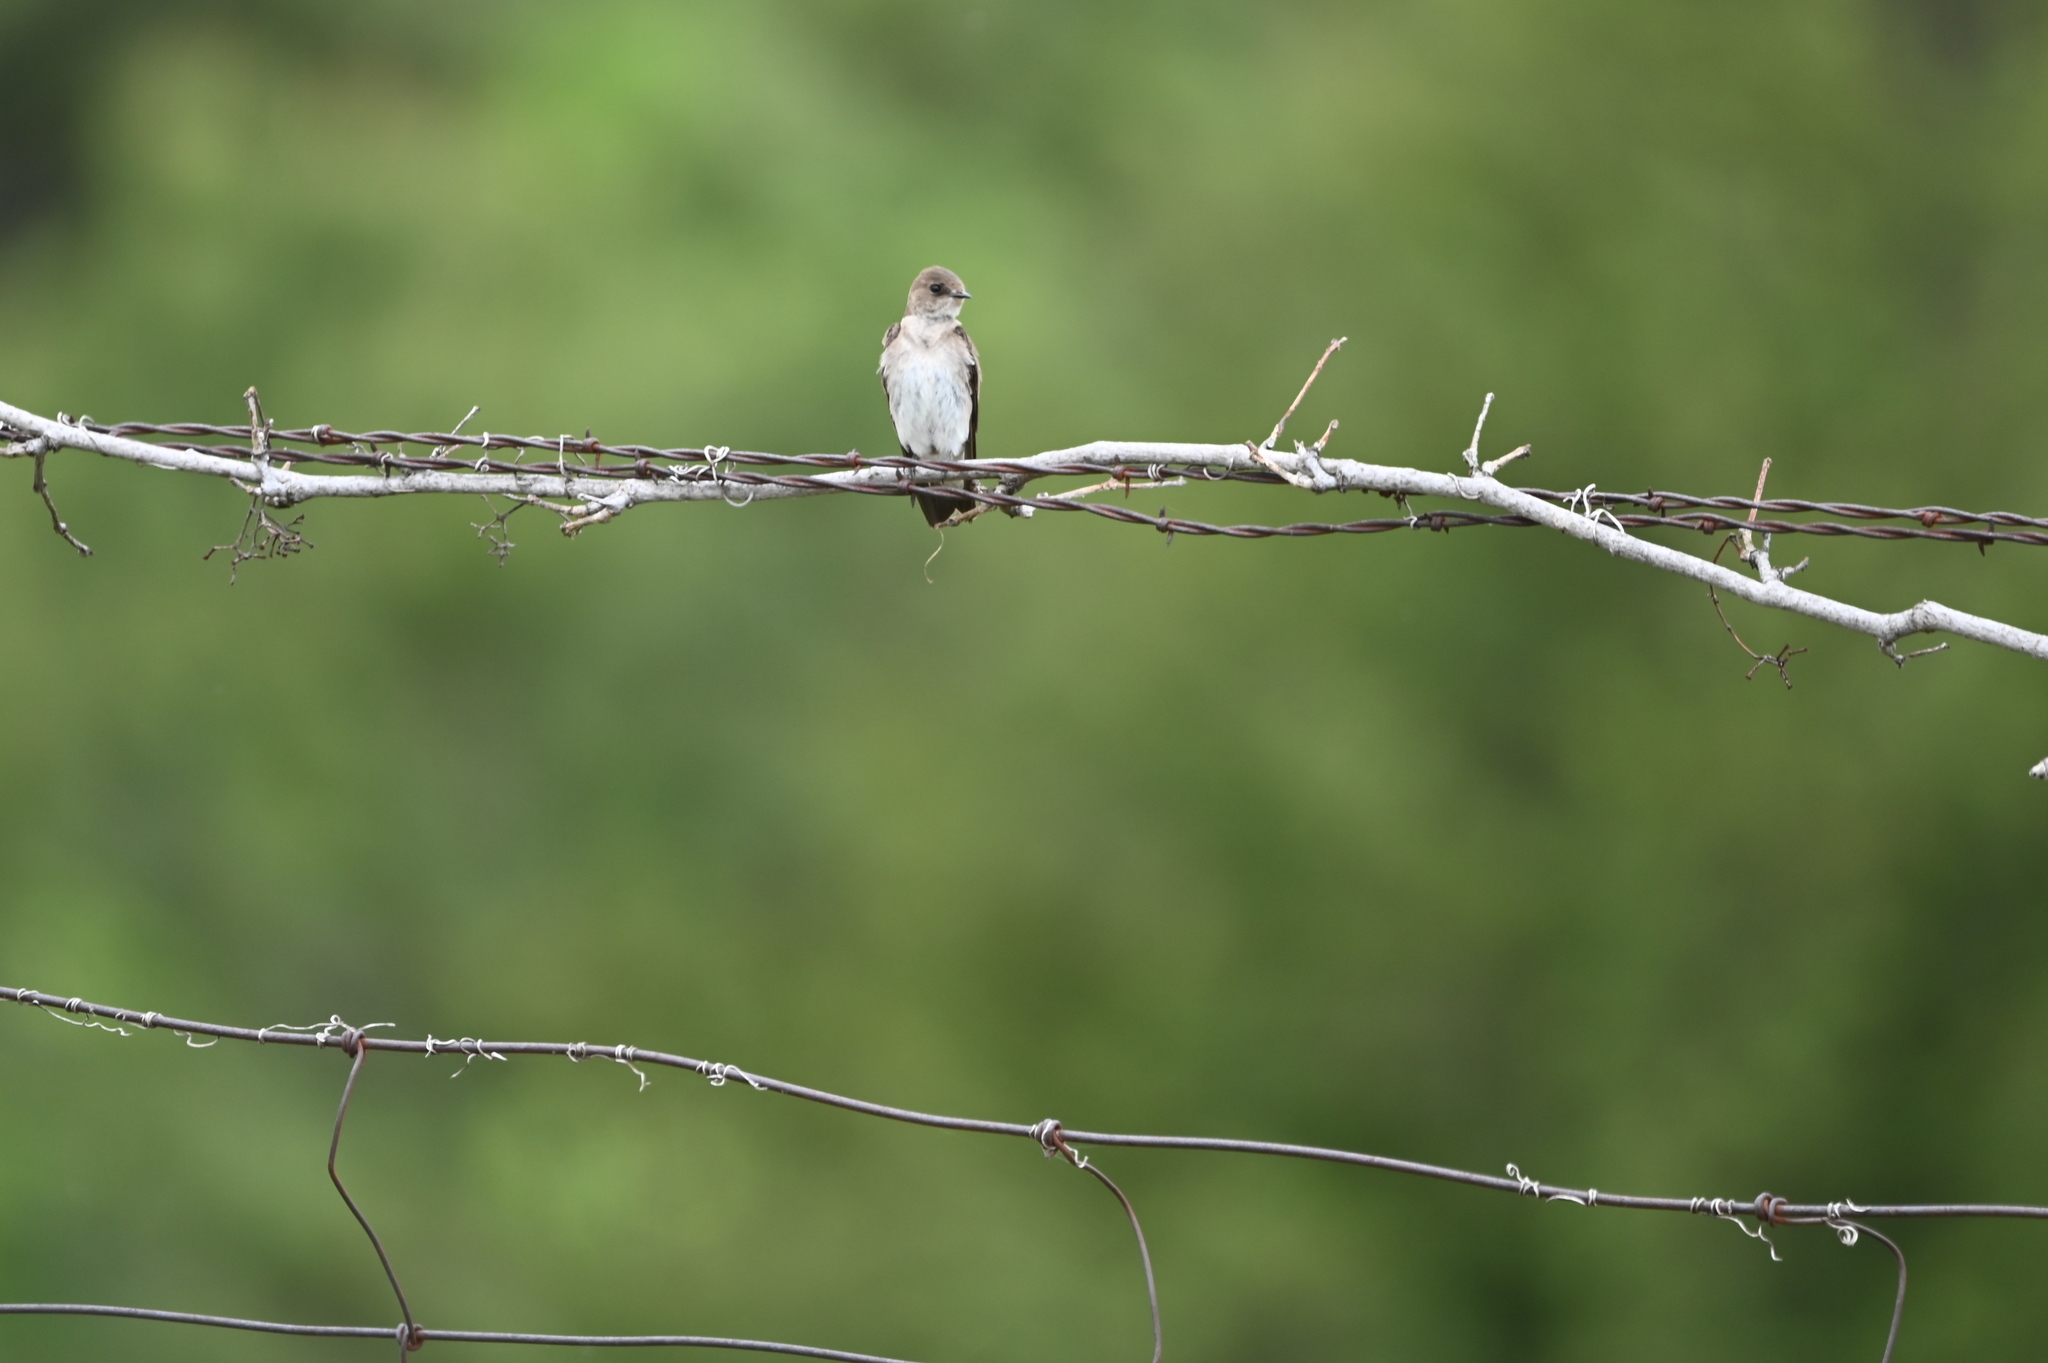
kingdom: Animalia
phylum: Chordata
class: Aves
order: Passeriformes
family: Hirundinidae
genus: Stelgidopteryx
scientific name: Stelgidopteryx serripennis
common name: Northern rough-winged swallow
